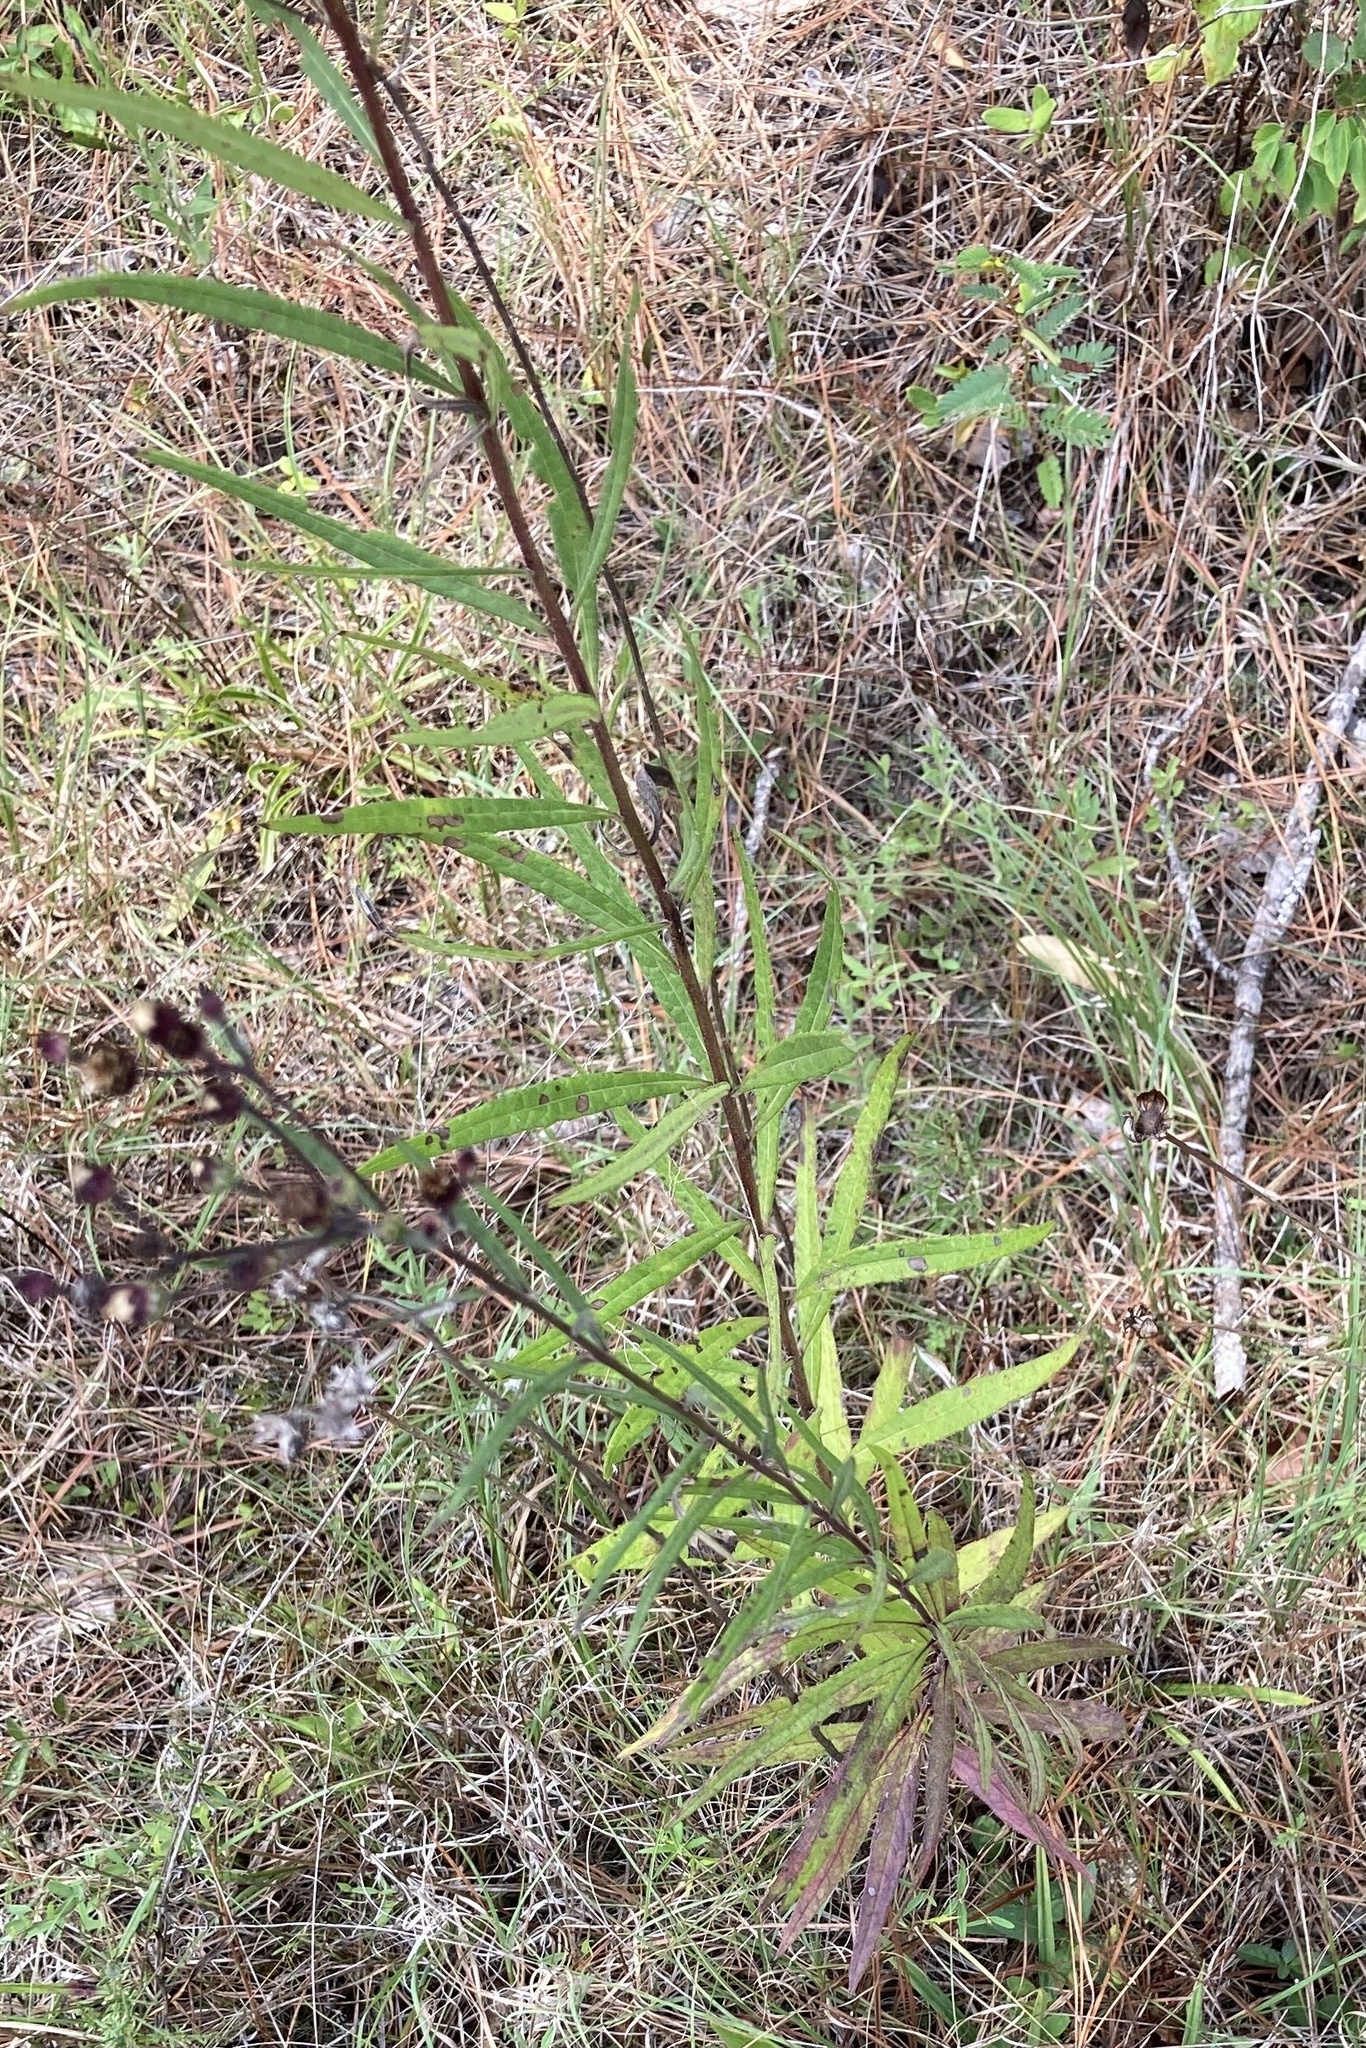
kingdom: Plantae
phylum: Tracheophyta
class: Magnoliopsida
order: Asterales
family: Asteraceae
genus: Vernonia
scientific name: Vernonia texana
